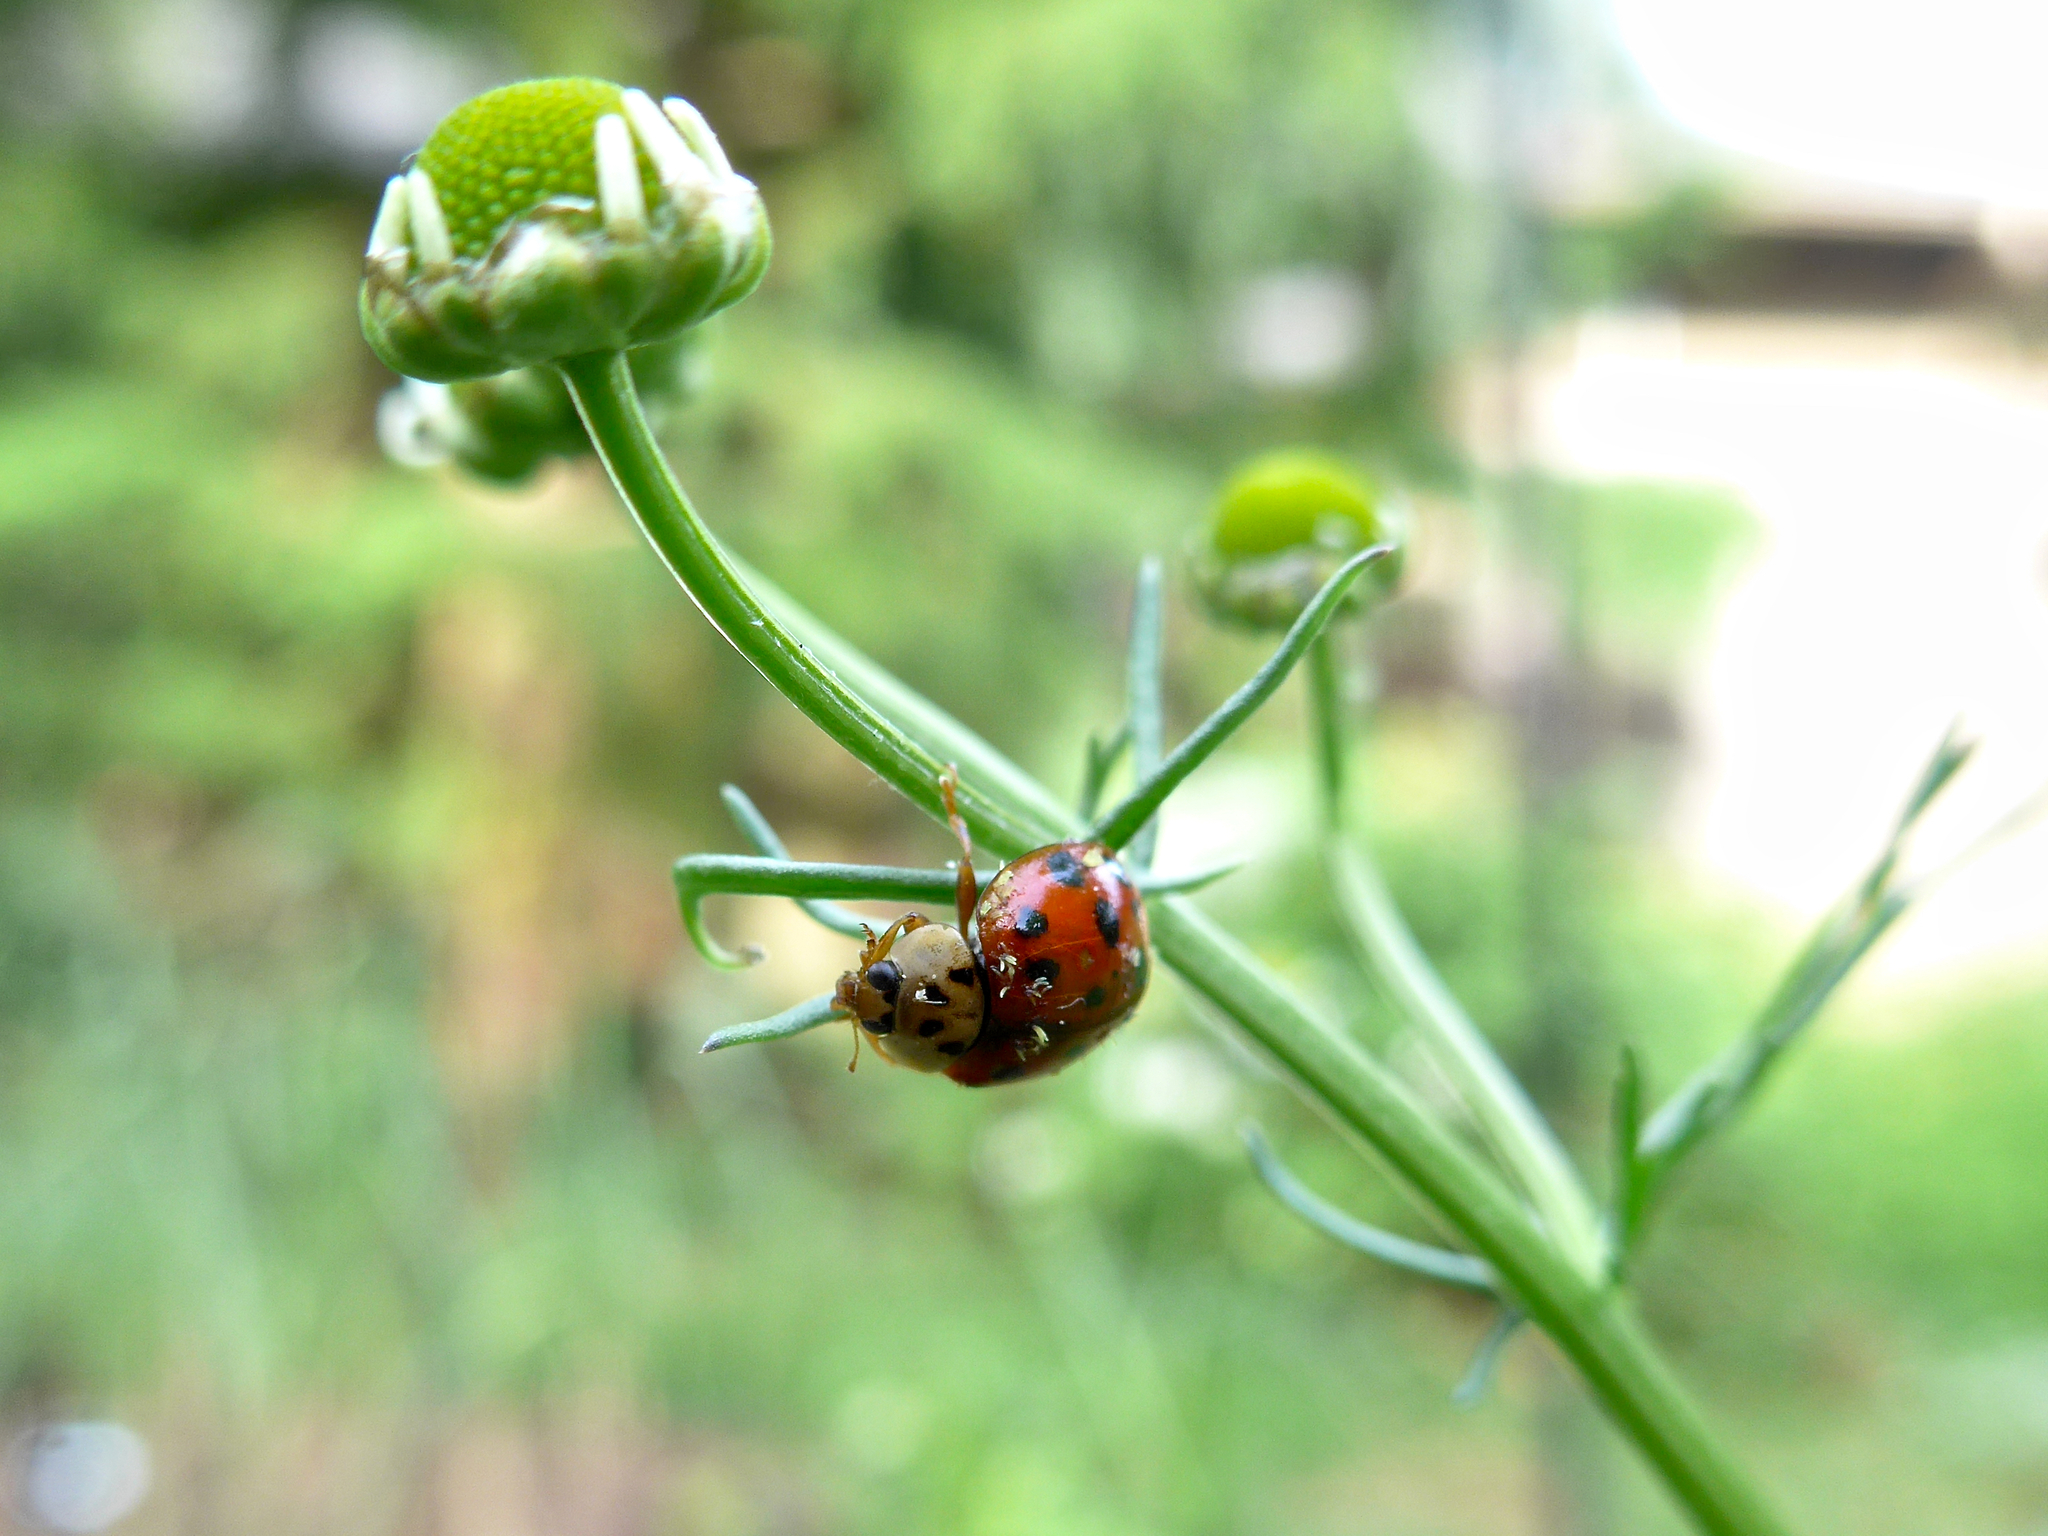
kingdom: Fungi
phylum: Ascomycota
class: Laboulbeniomycetes
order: Laboulbeniales
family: Laboulbeniaceae
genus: Hesperomyces
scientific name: Hesperomyces harmoniae
